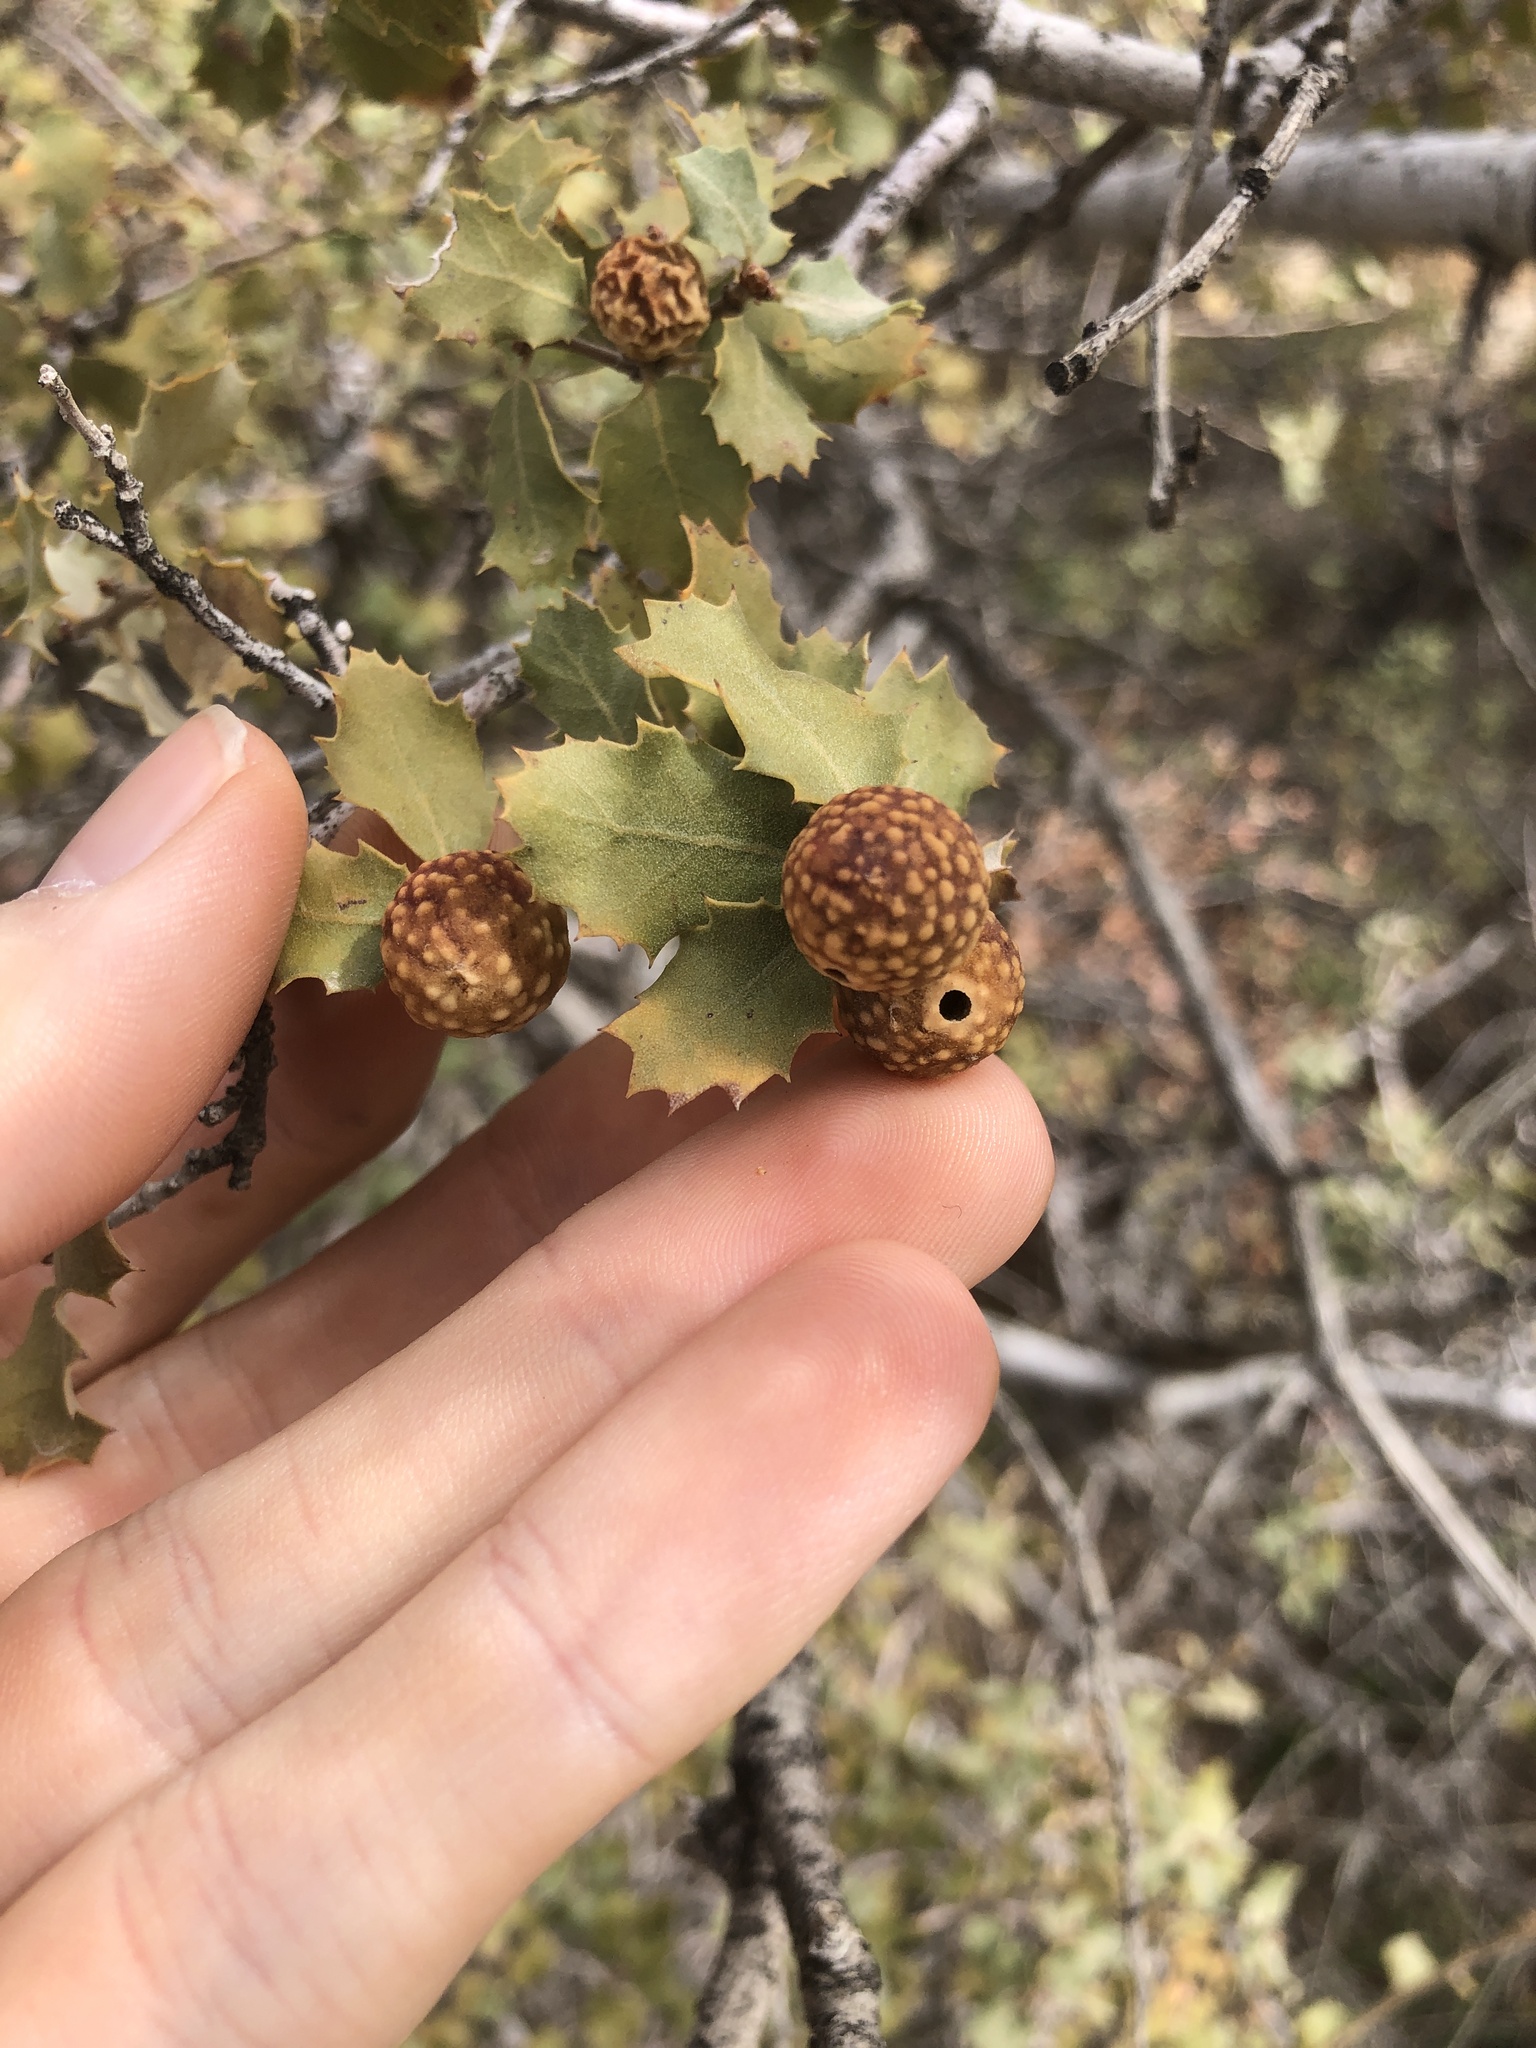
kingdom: Animalia
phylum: Arthropoda
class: Insecta
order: Hymenoptera
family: Cynipidae
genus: Burnettweldia
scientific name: Burnettweldia
